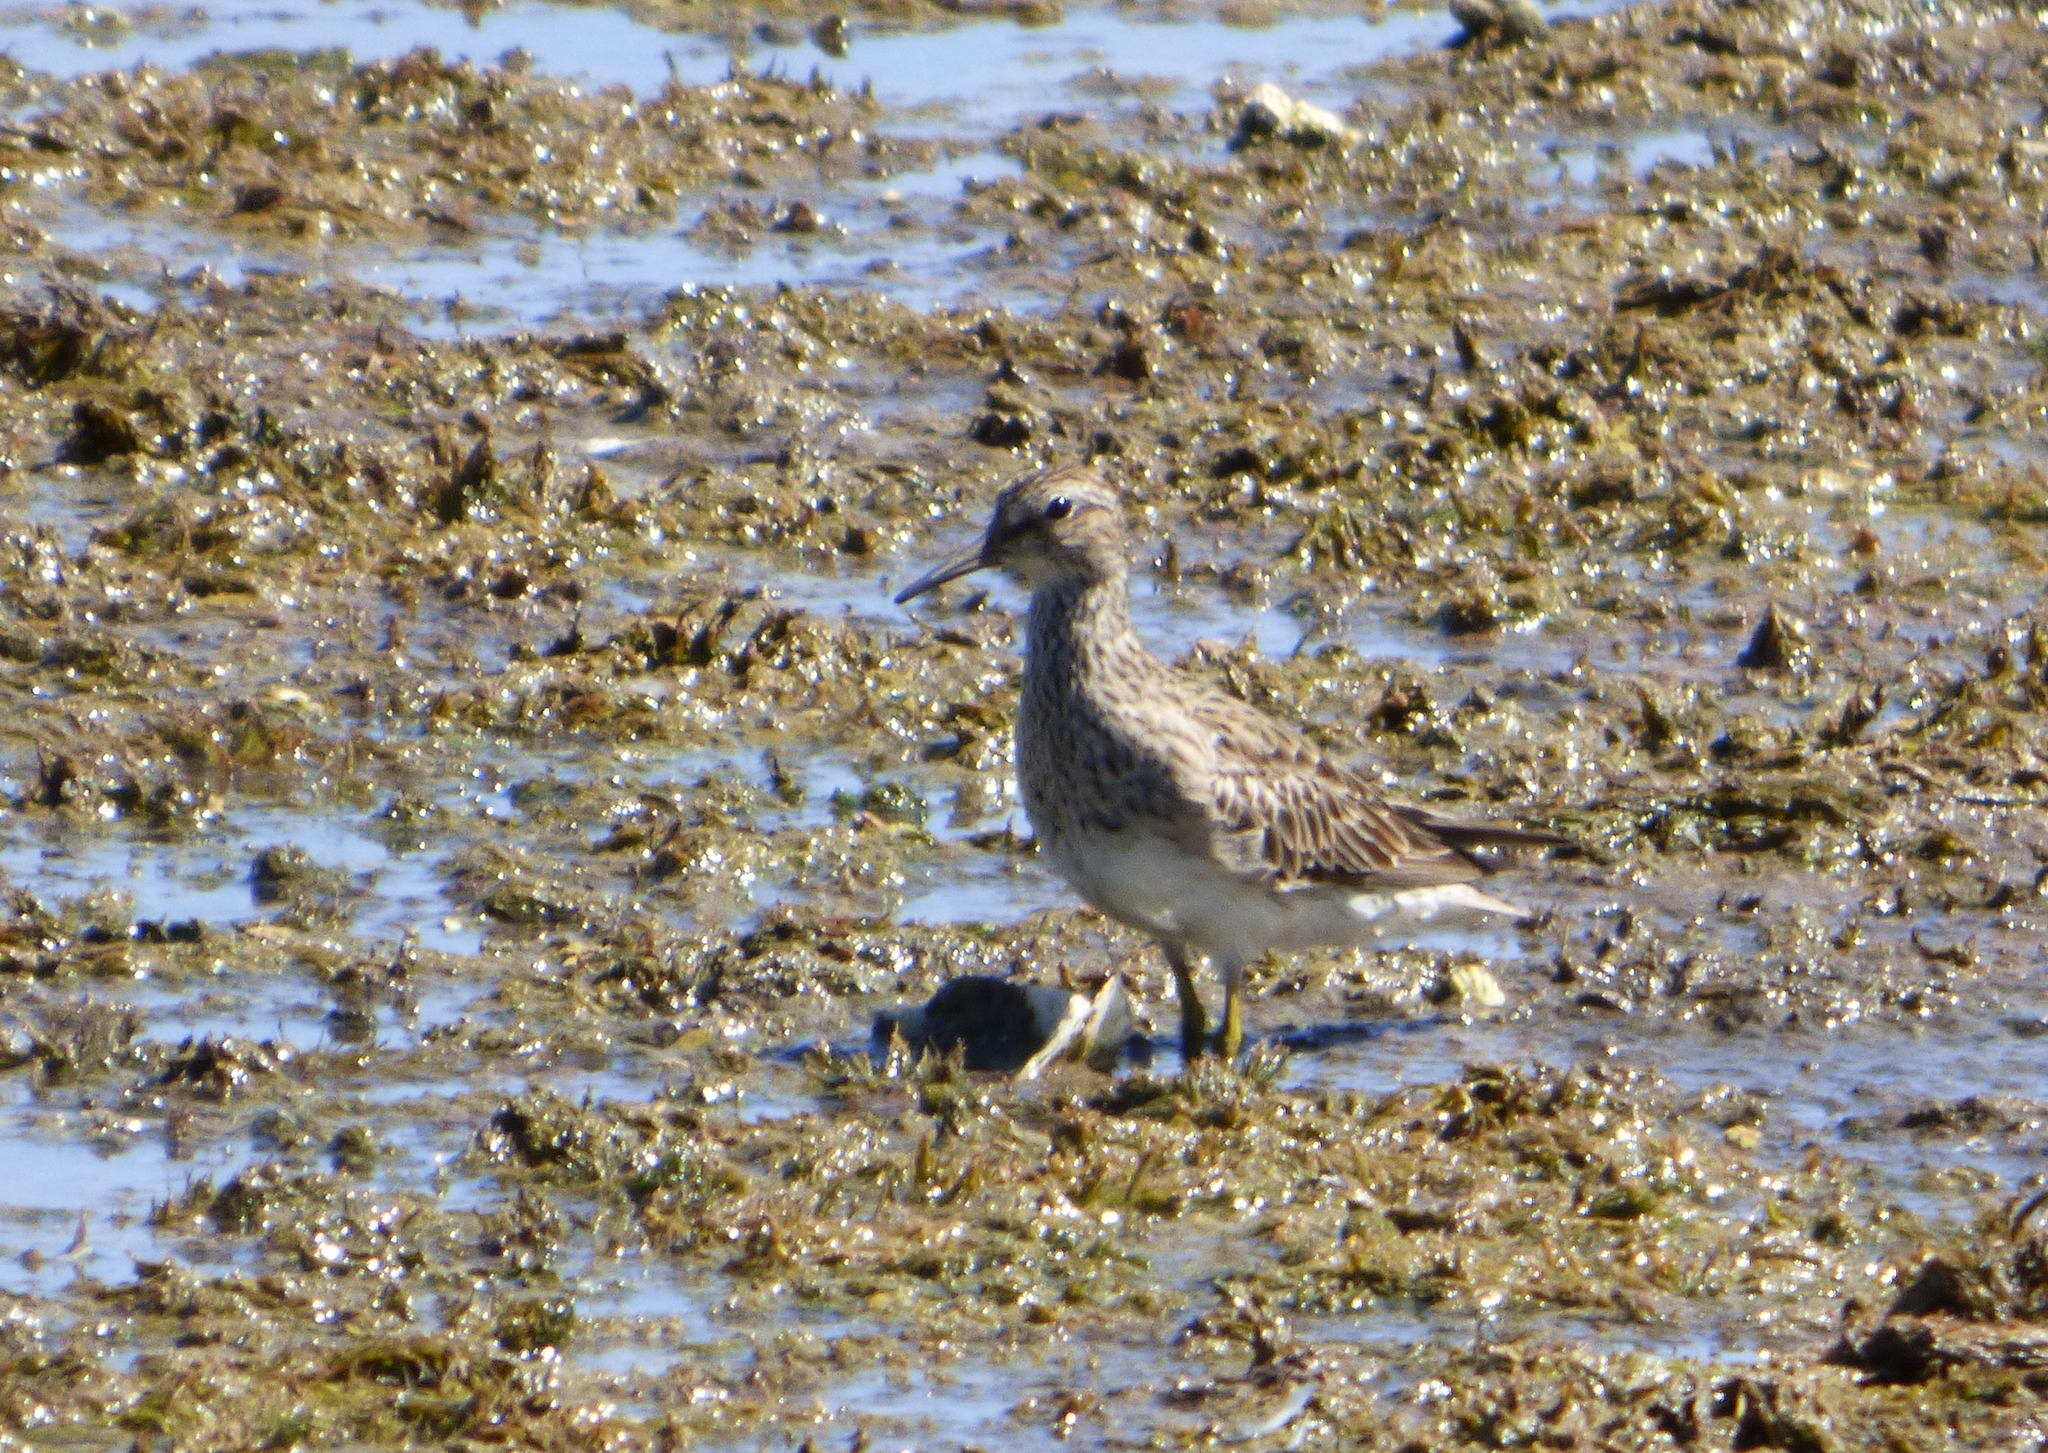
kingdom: Animalia
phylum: Chordata
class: Aves
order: Charadriiformes
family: Scolopacidae
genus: Calidris
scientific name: Calidris melanotos
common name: Pectoral sandpiper
